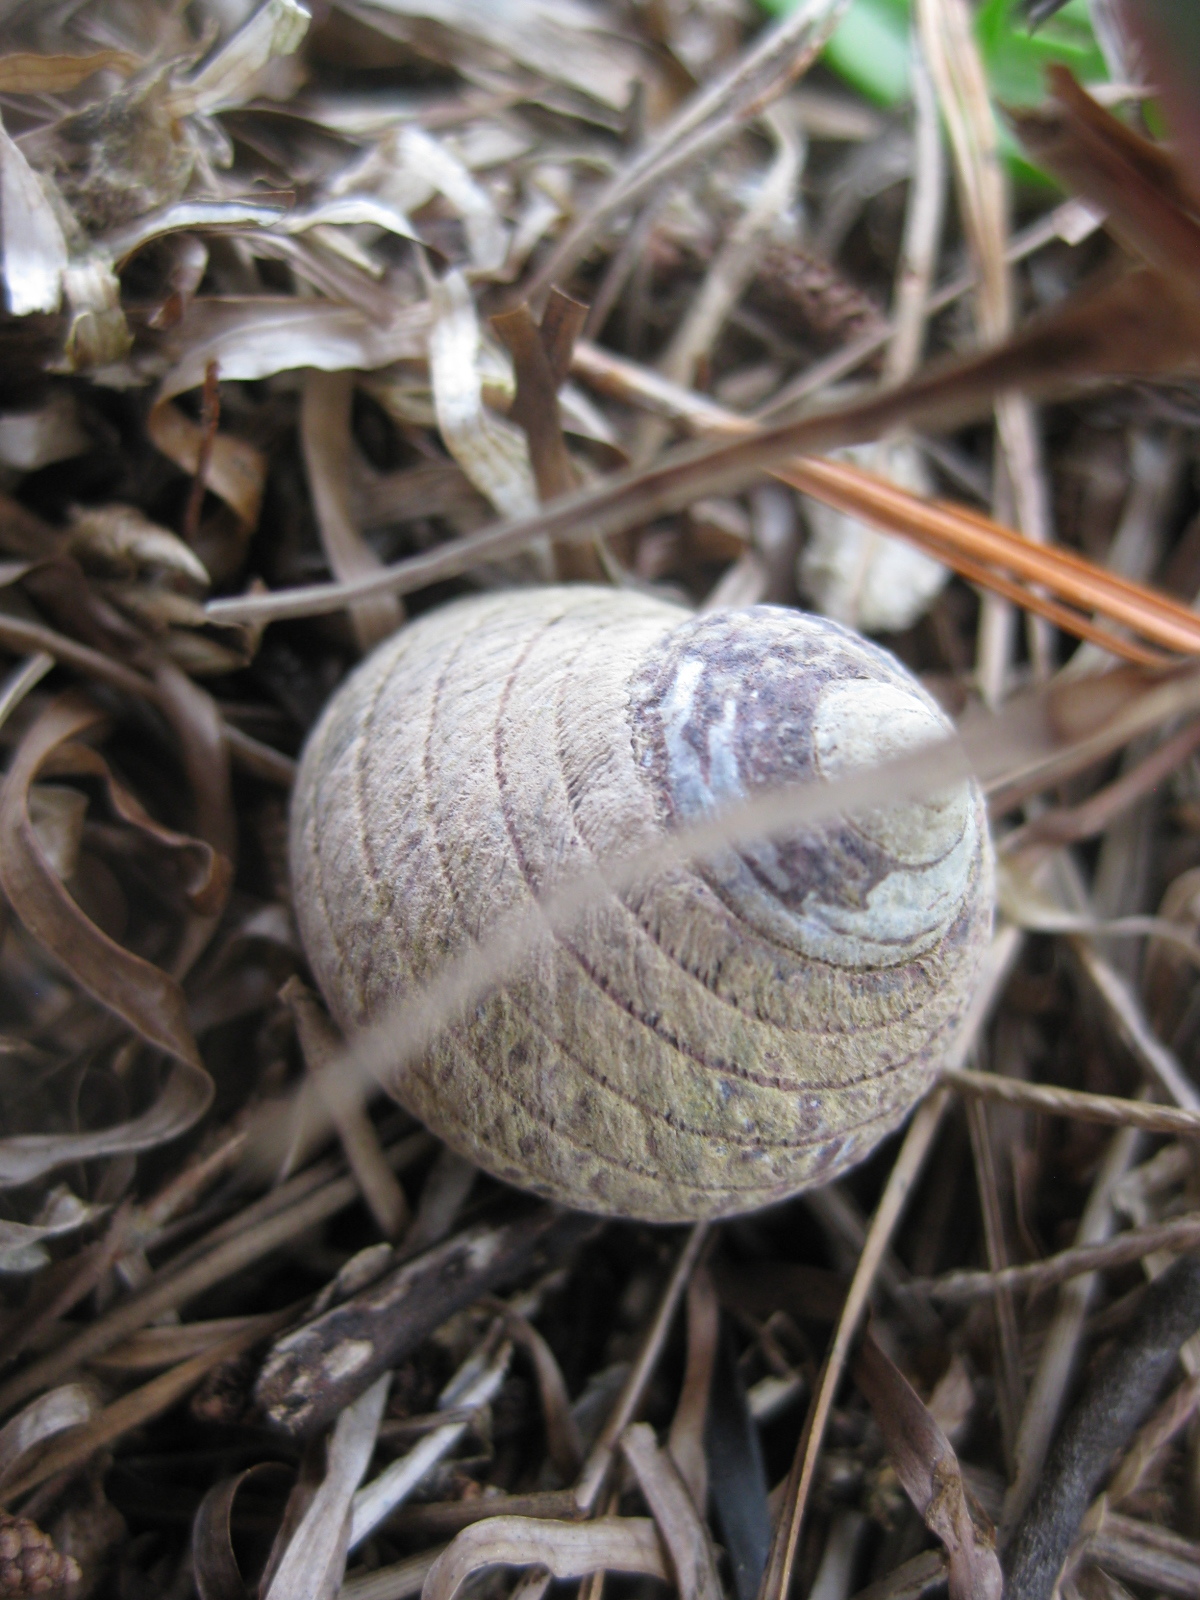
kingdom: Animalia
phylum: Mollusca
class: Gastropoda
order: Trochida
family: Trochidae
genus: Diloma
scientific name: Diloma aethiops
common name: Scorched monodont
